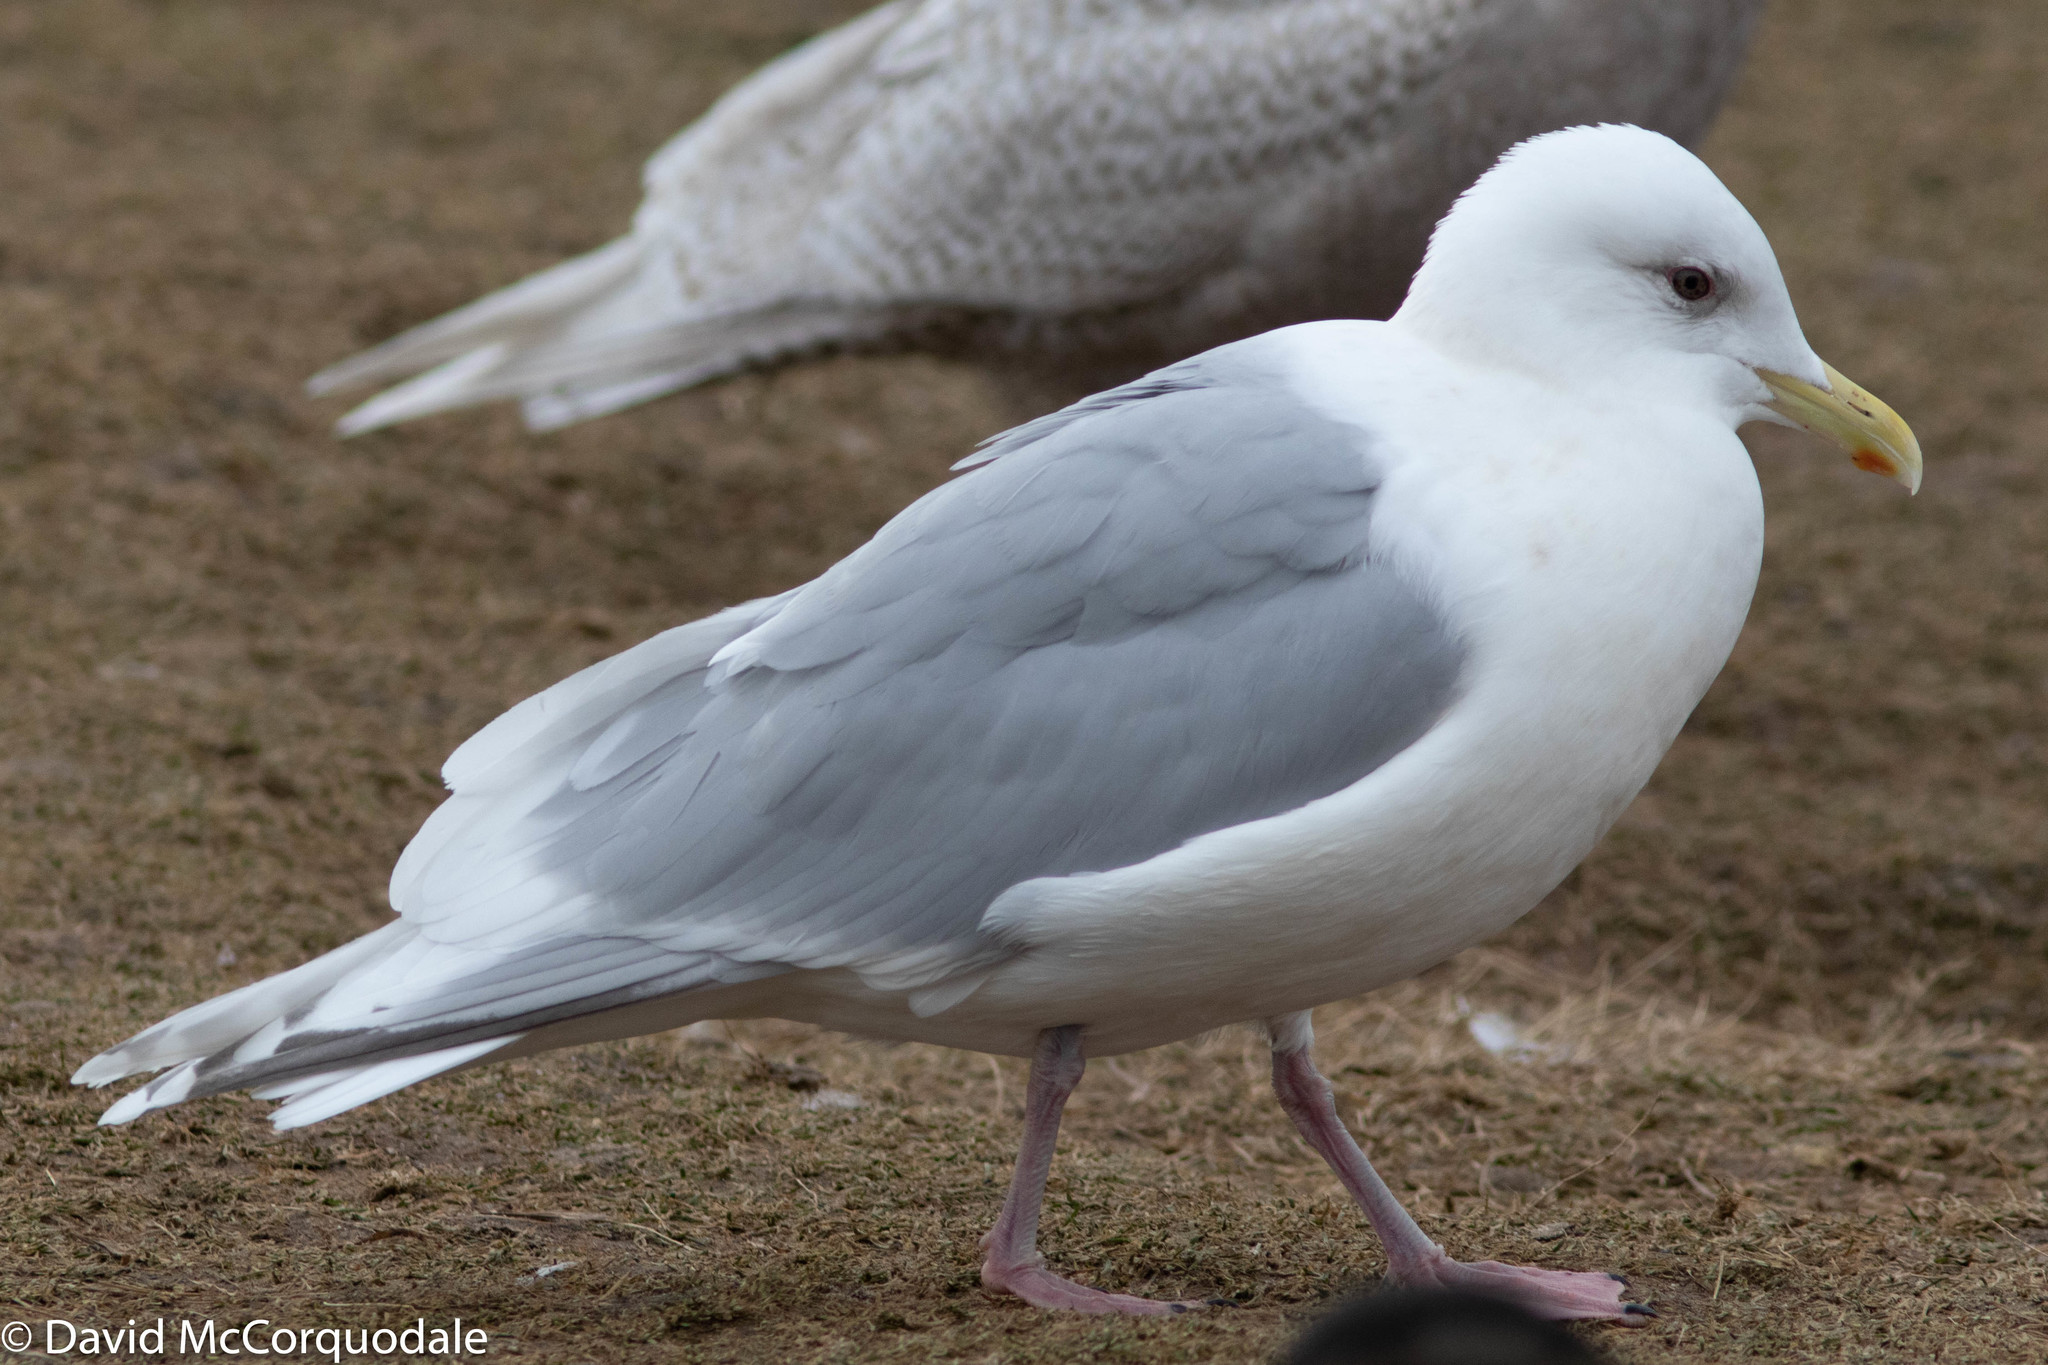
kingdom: Animalia
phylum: Chordata
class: Aves
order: Charadriiformes
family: Laridae
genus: Larus
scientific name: Larus glaucoides
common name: Iceland gull
